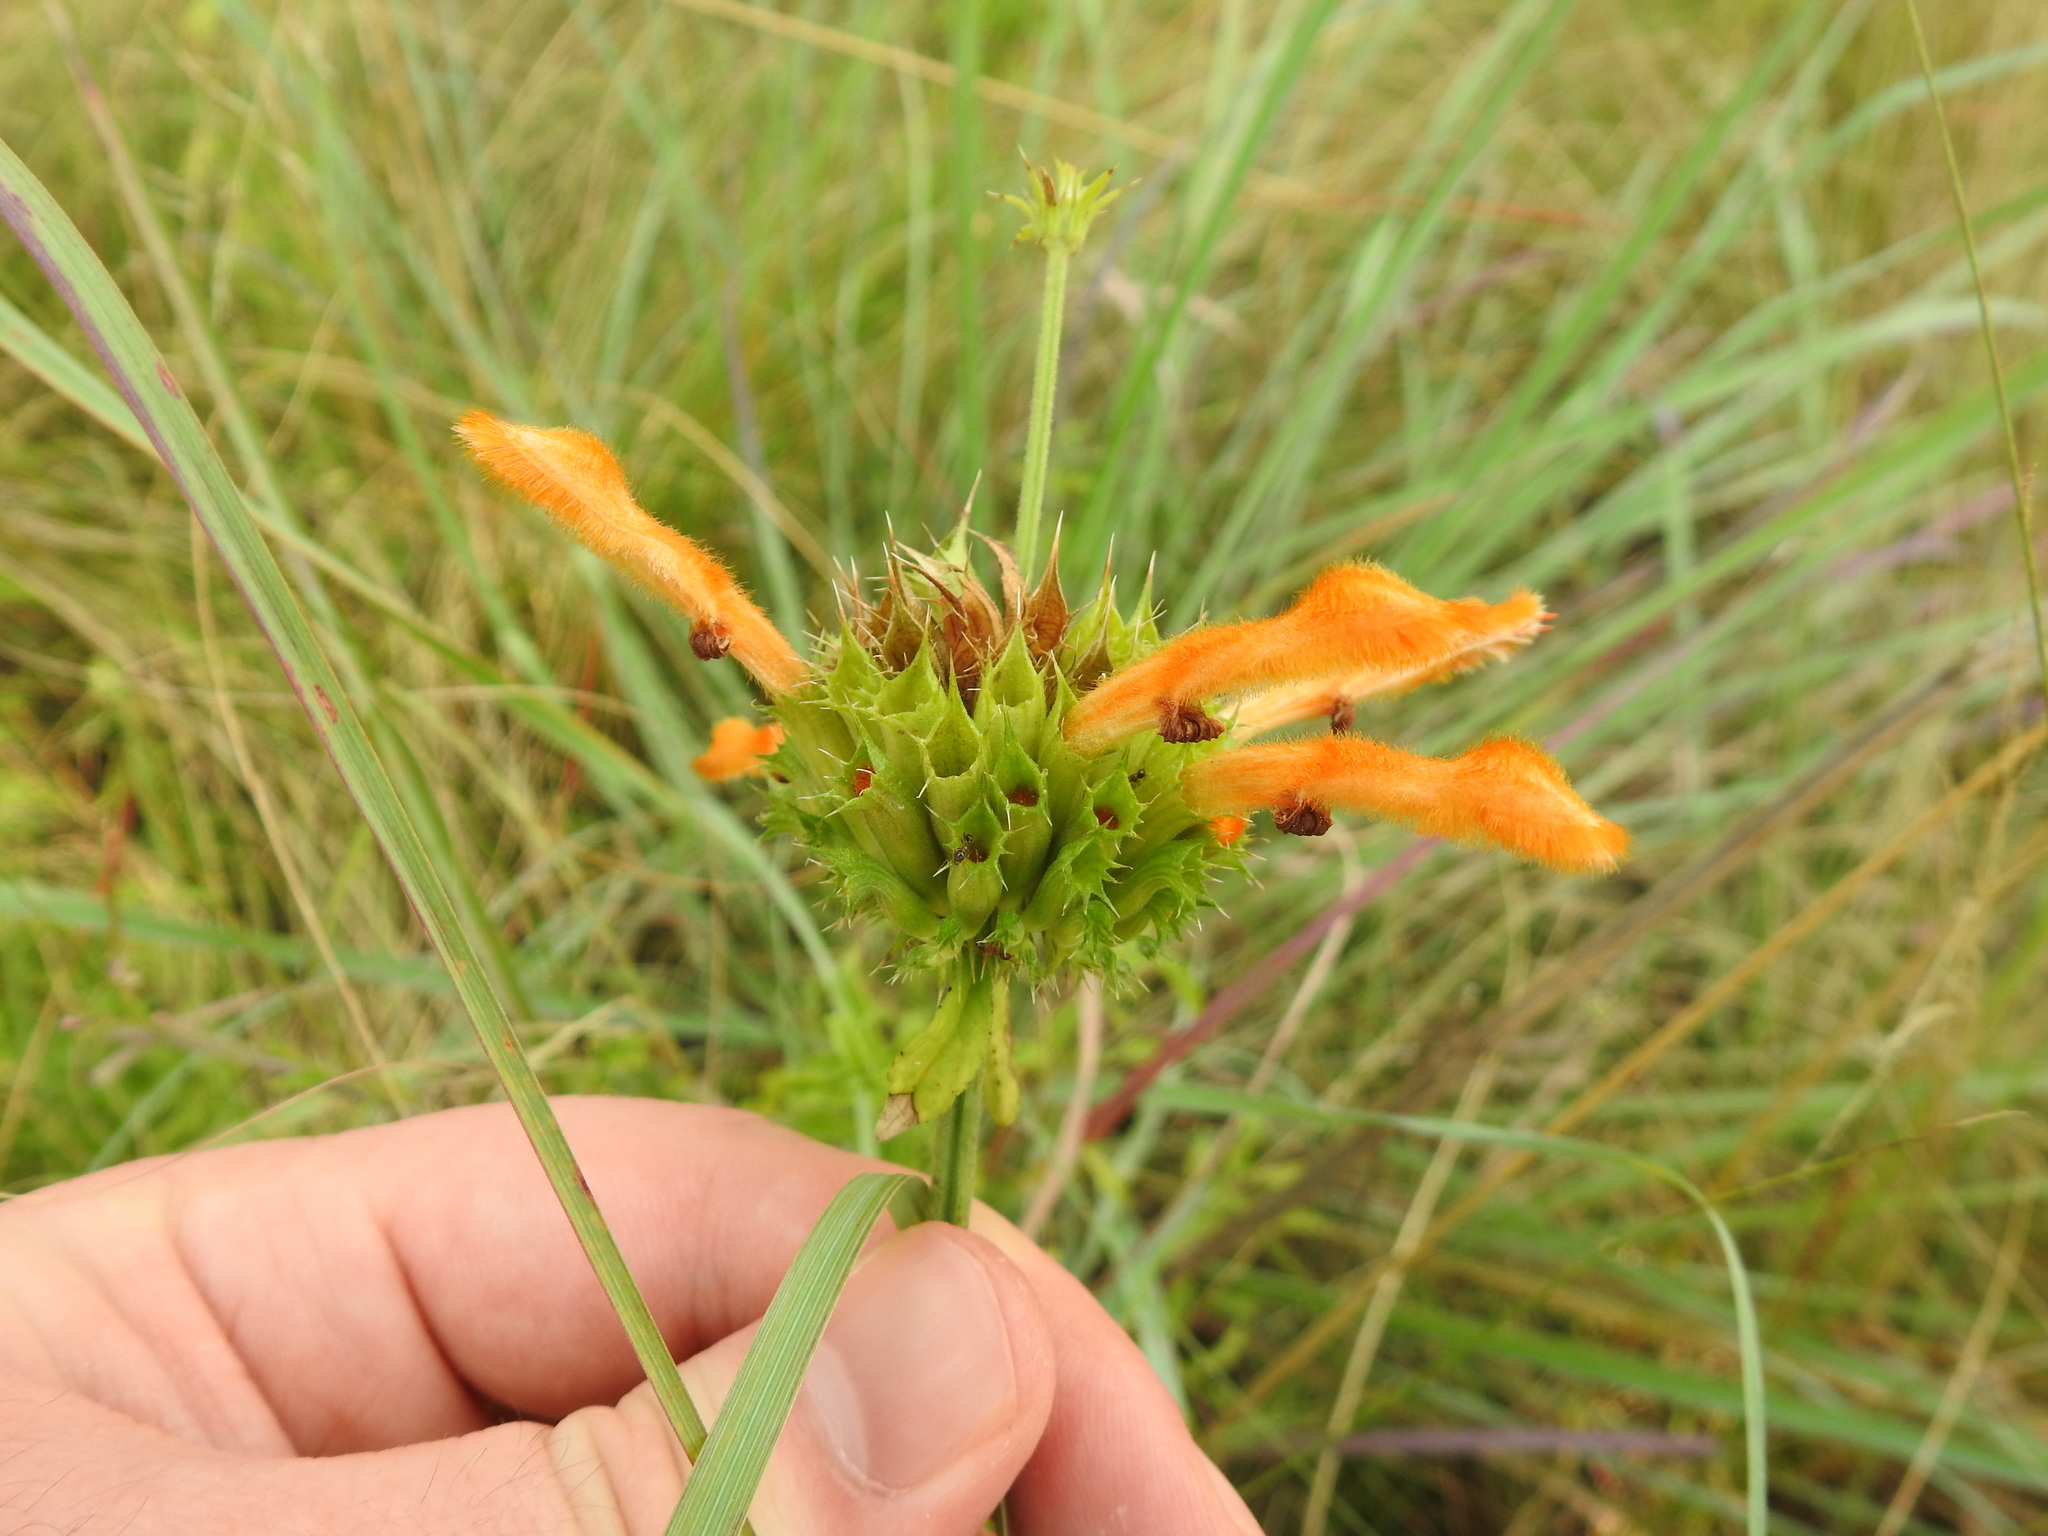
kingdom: Plantae
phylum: Tracheophyta
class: Magnoliopsida
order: Lamiales
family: Lamiaceae
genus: Leonotis
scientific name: Leonotis ocymifolia
